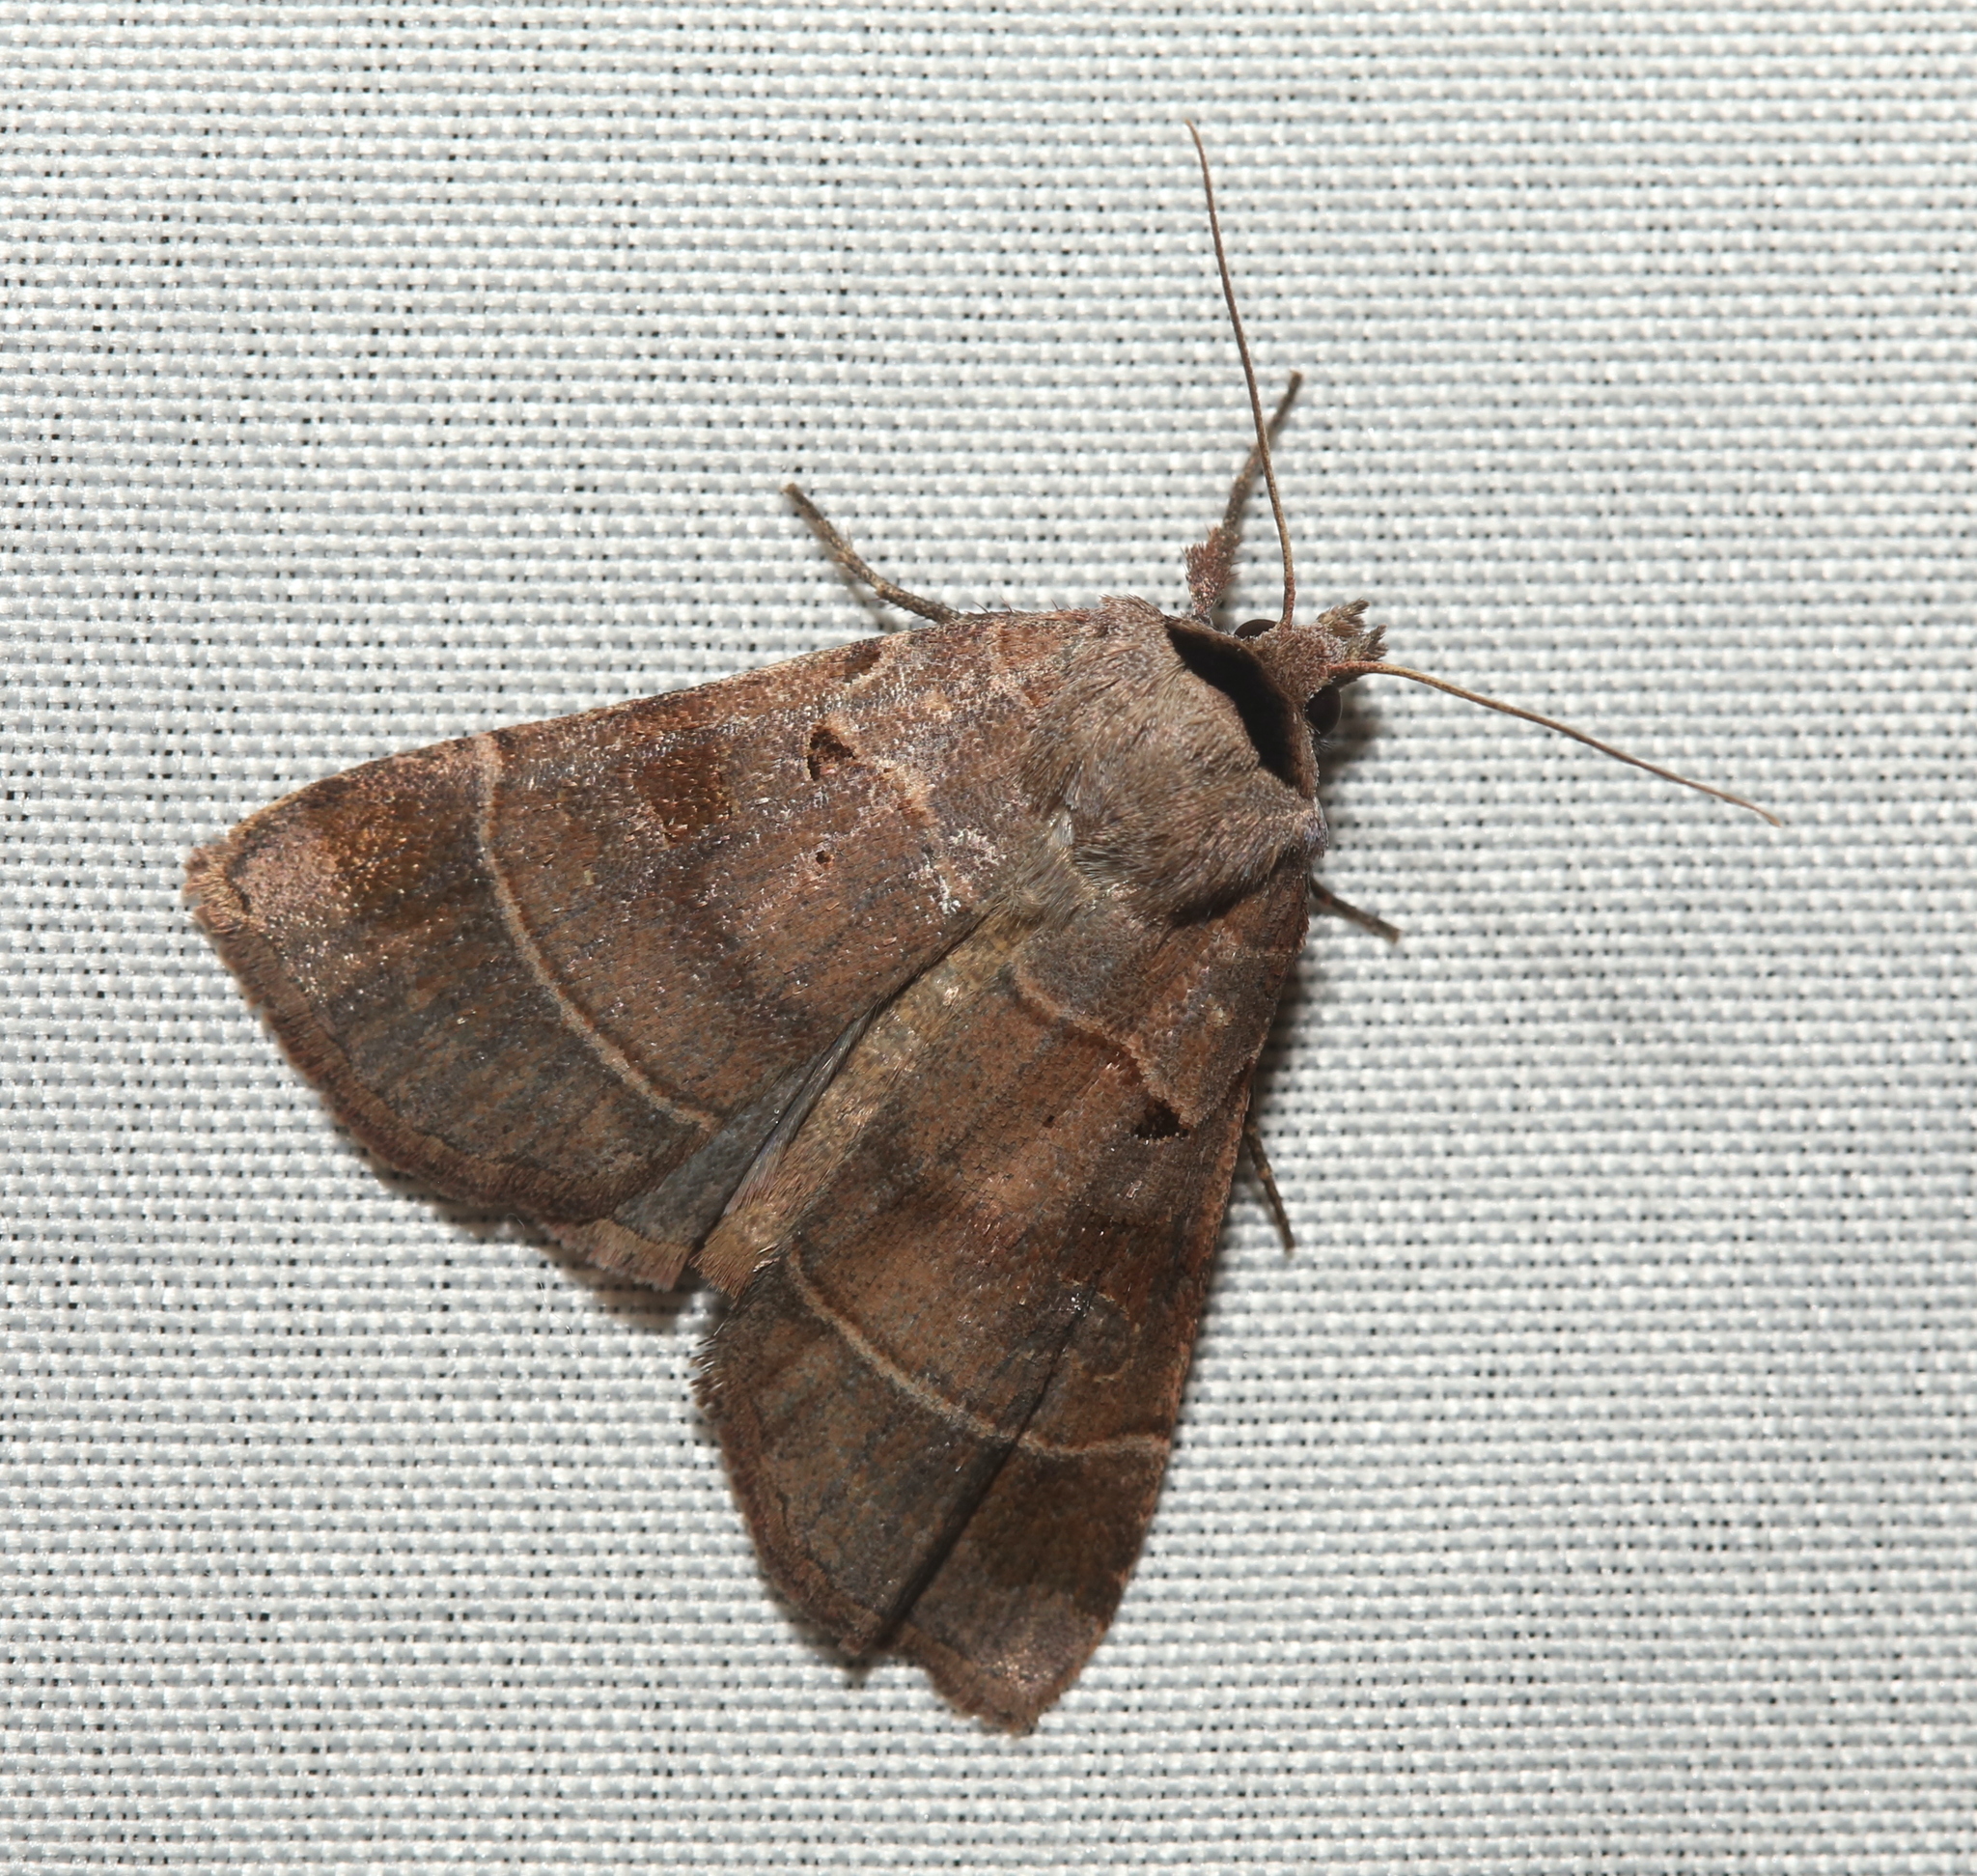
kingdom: Animalia
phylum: Arthropoda
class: Insecta
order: Lepidoptera
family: Noctuidae
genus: Agnorisma
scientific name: Agnorisma badinodis
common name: Pale-banded dart
